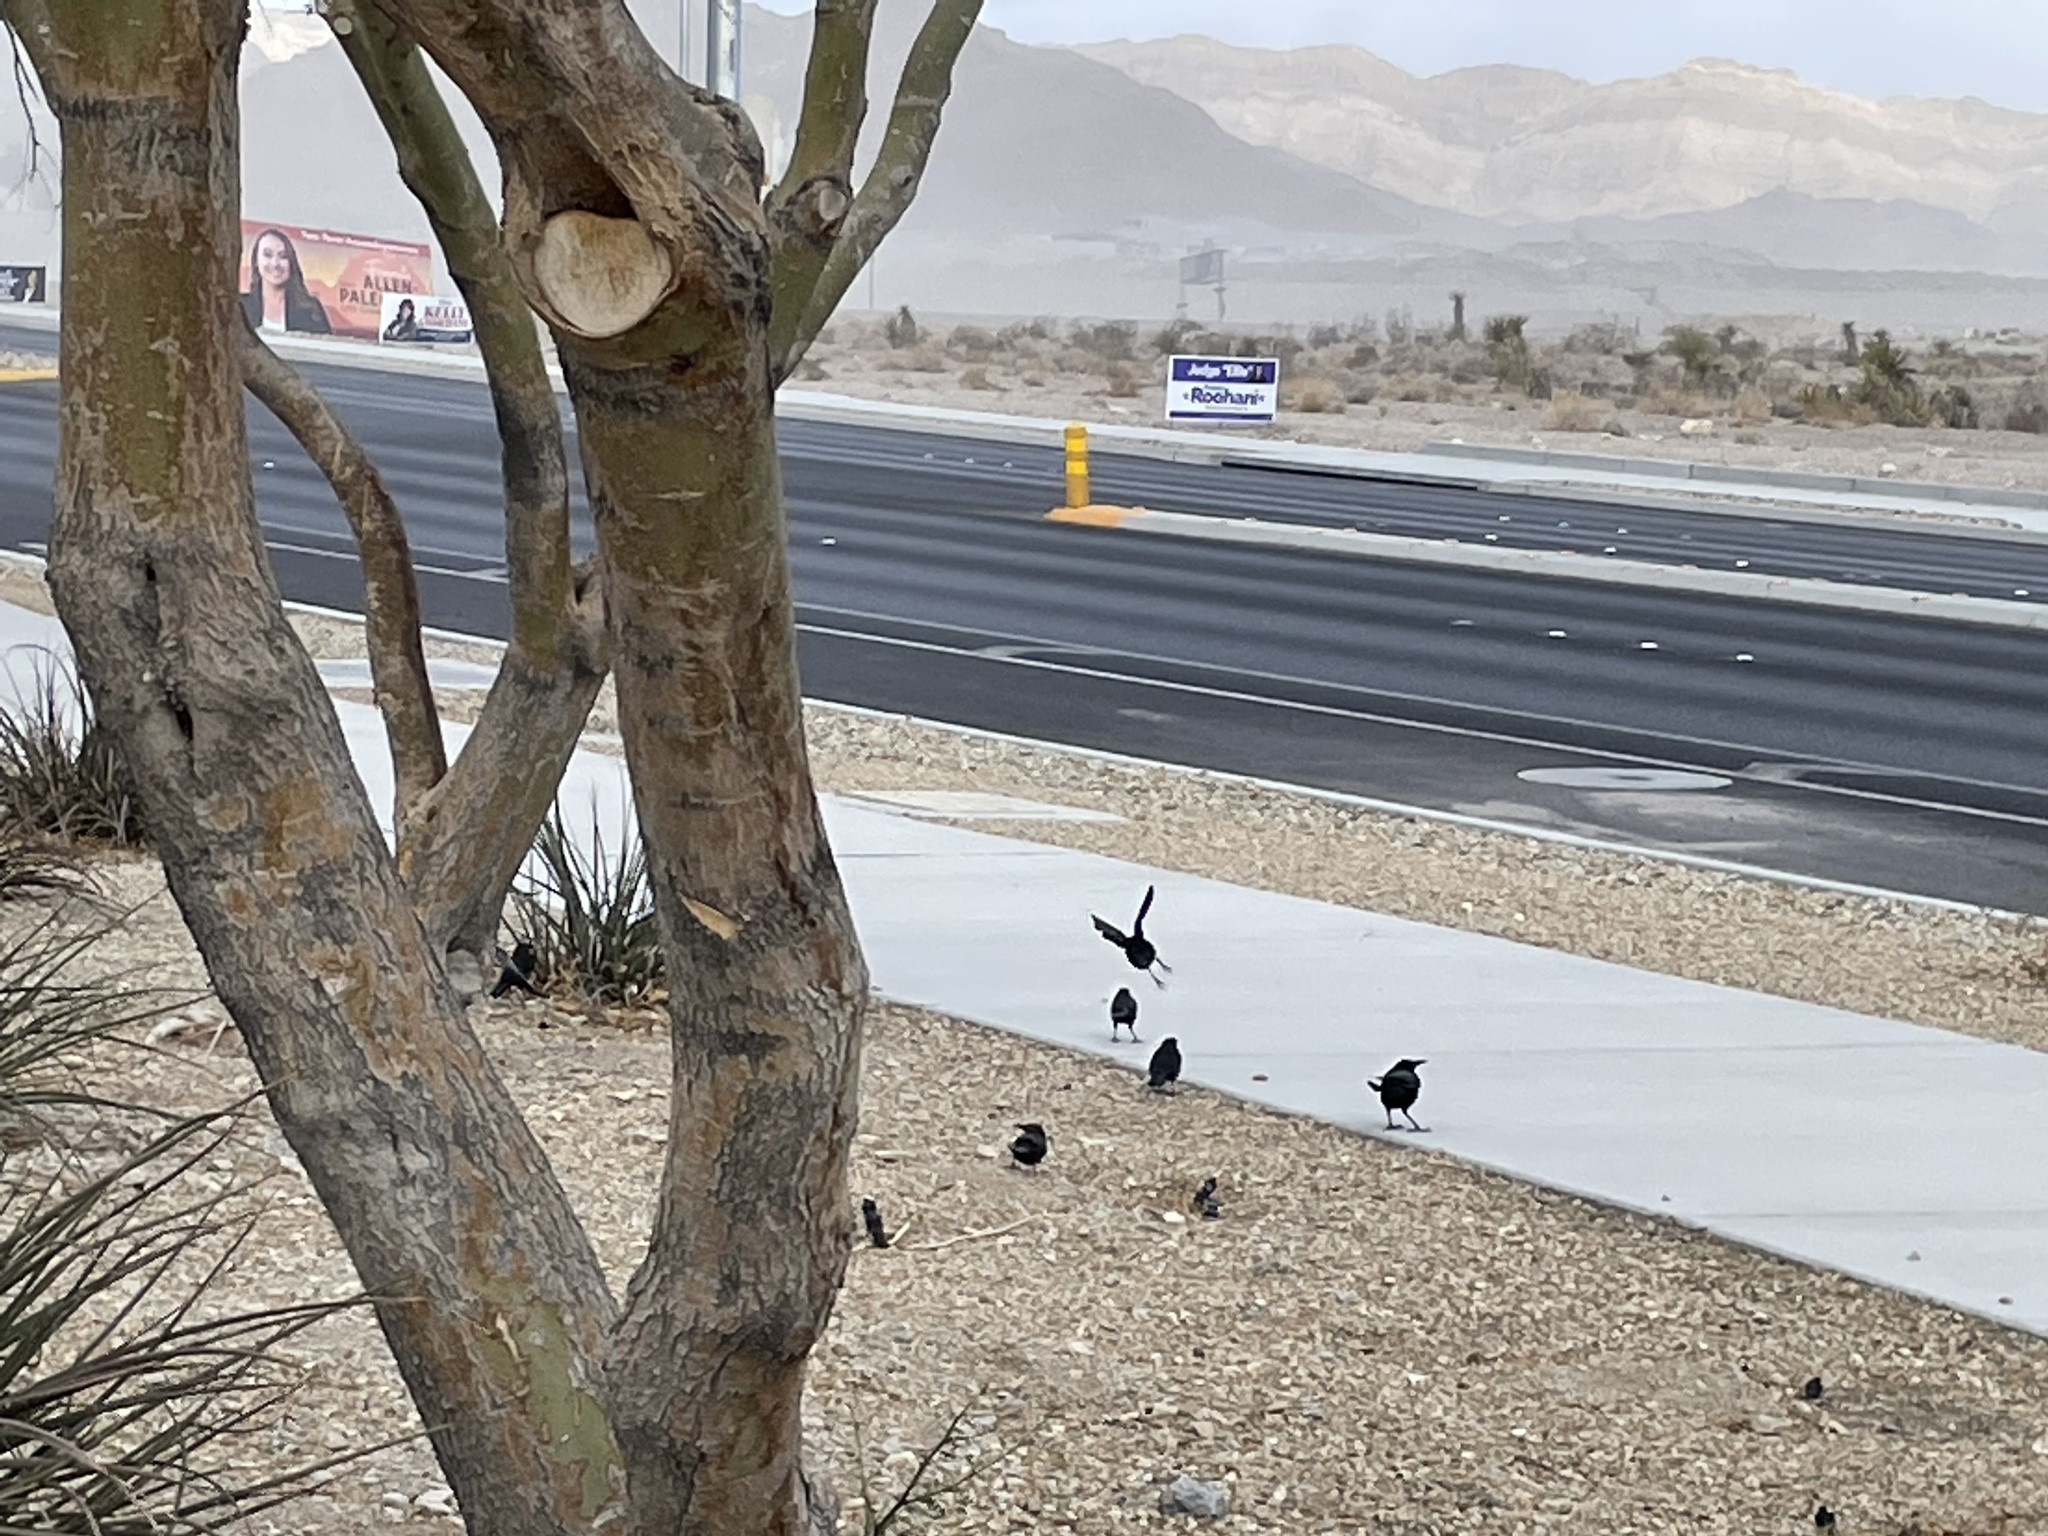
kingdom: Animalia
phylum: Chordata
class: Aves
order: Passeriformes
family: Icteridae
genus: Quiscalus
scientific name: Quiscalus mexicanus
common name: Great-tailed grackle
